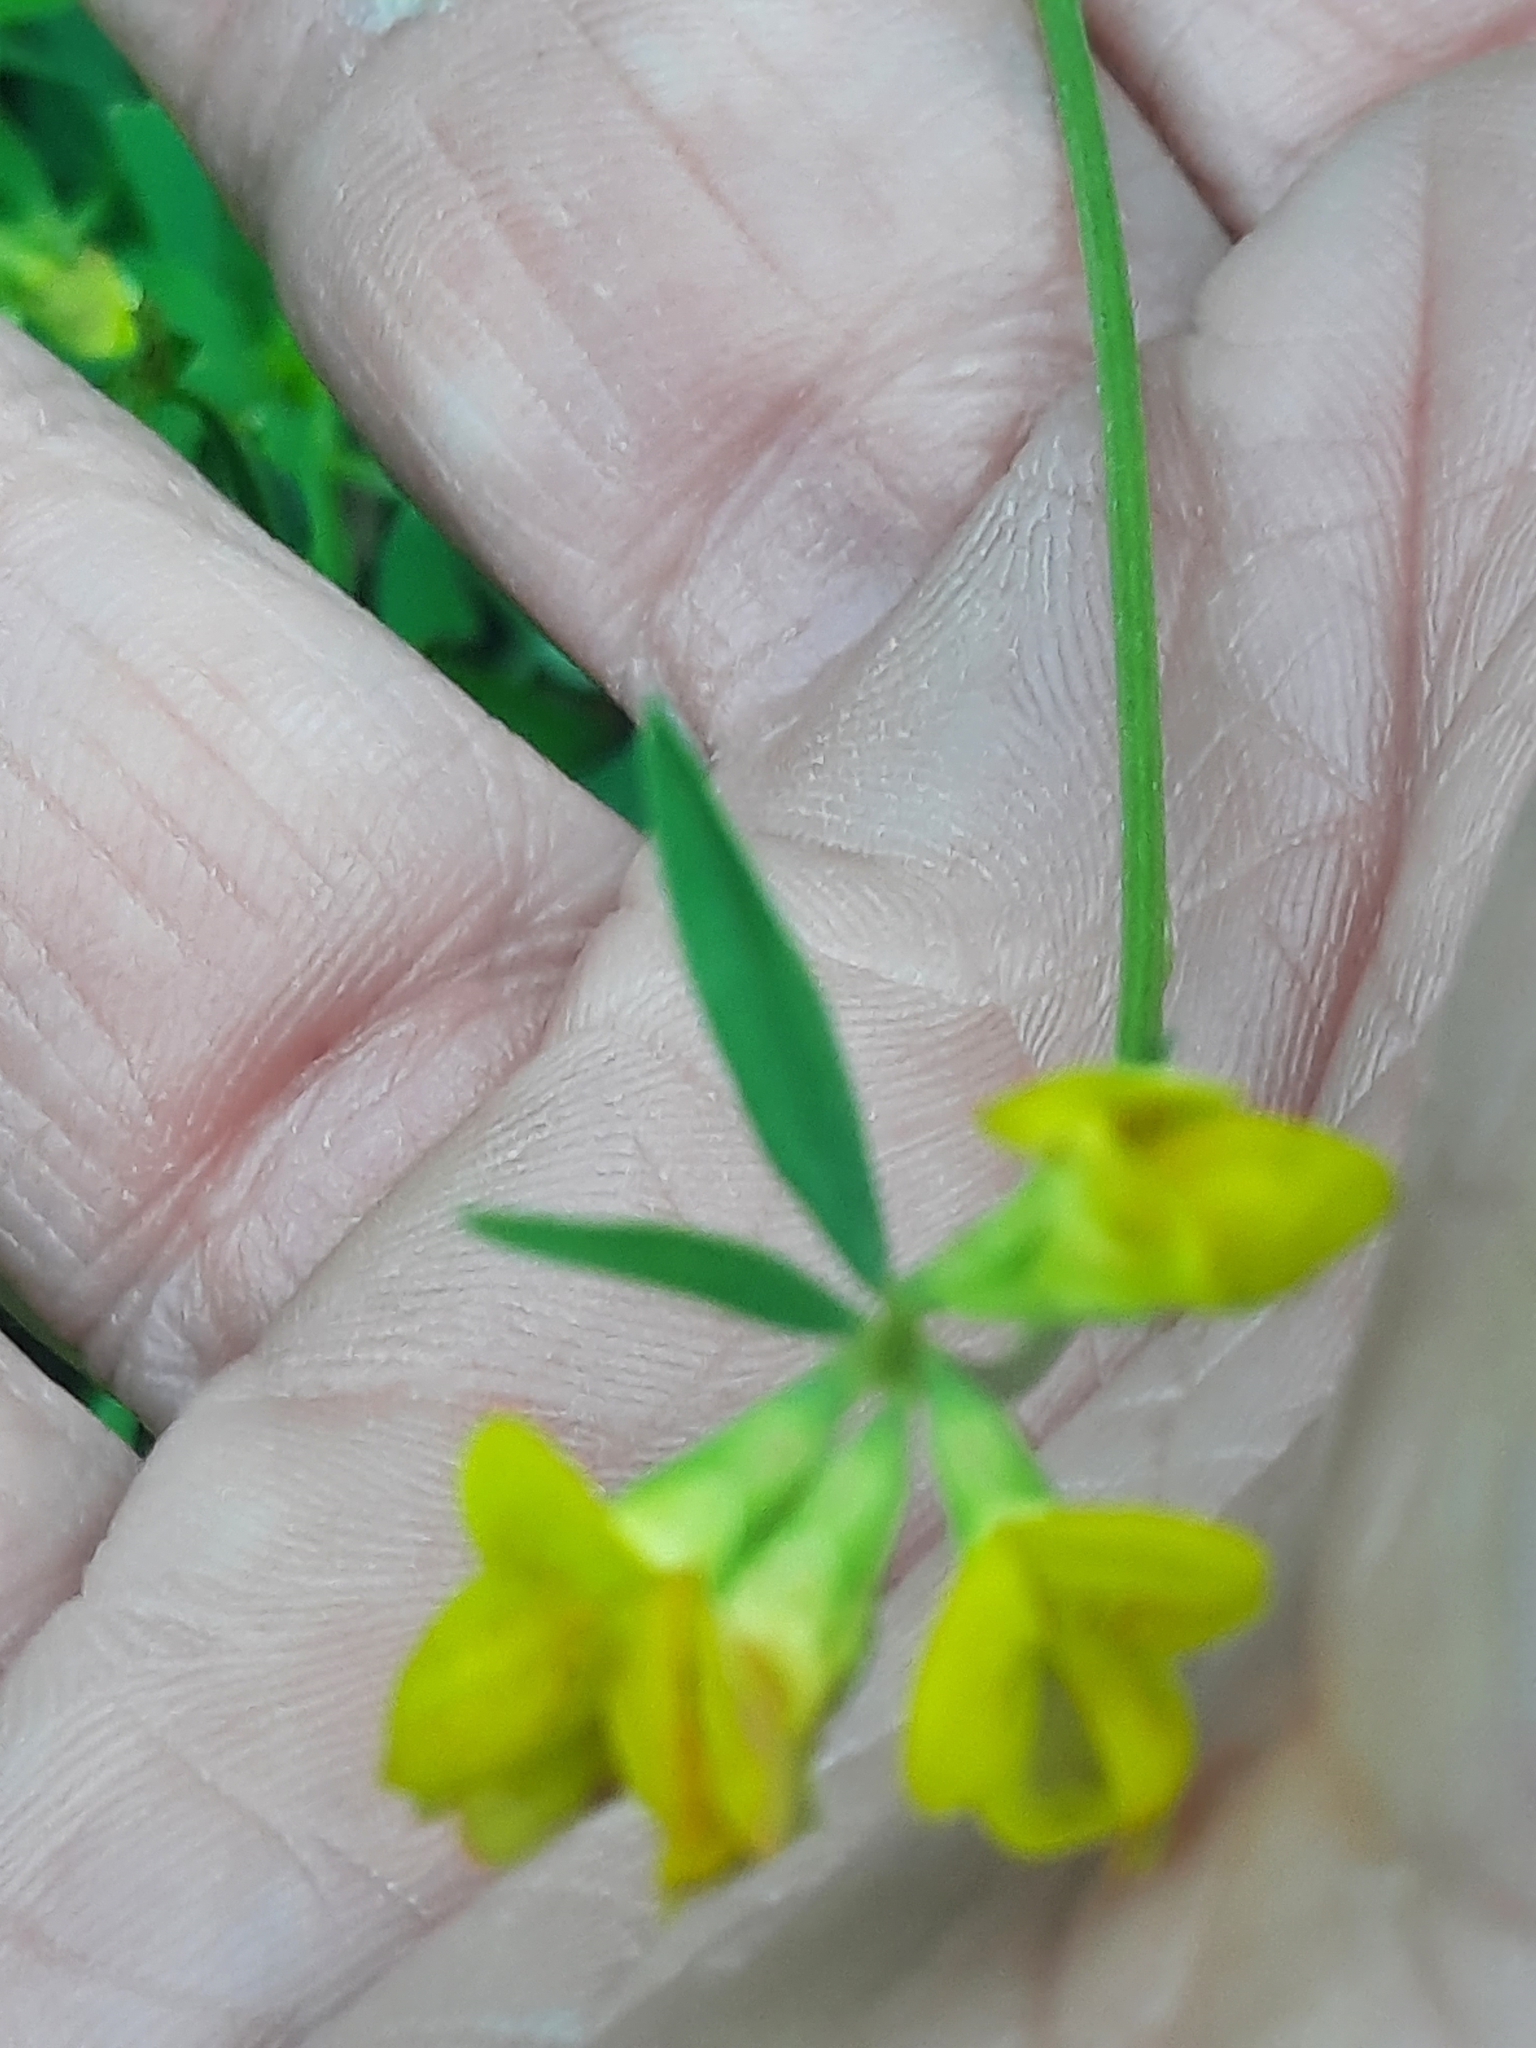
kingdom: Plantae
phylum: Tracheophyta
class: Magnoliopsida
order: Fabales
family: Fabaceae
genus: Lotus
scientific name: Lotus tenuis
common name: Narrow-leaved bird's-foot-trefoil
